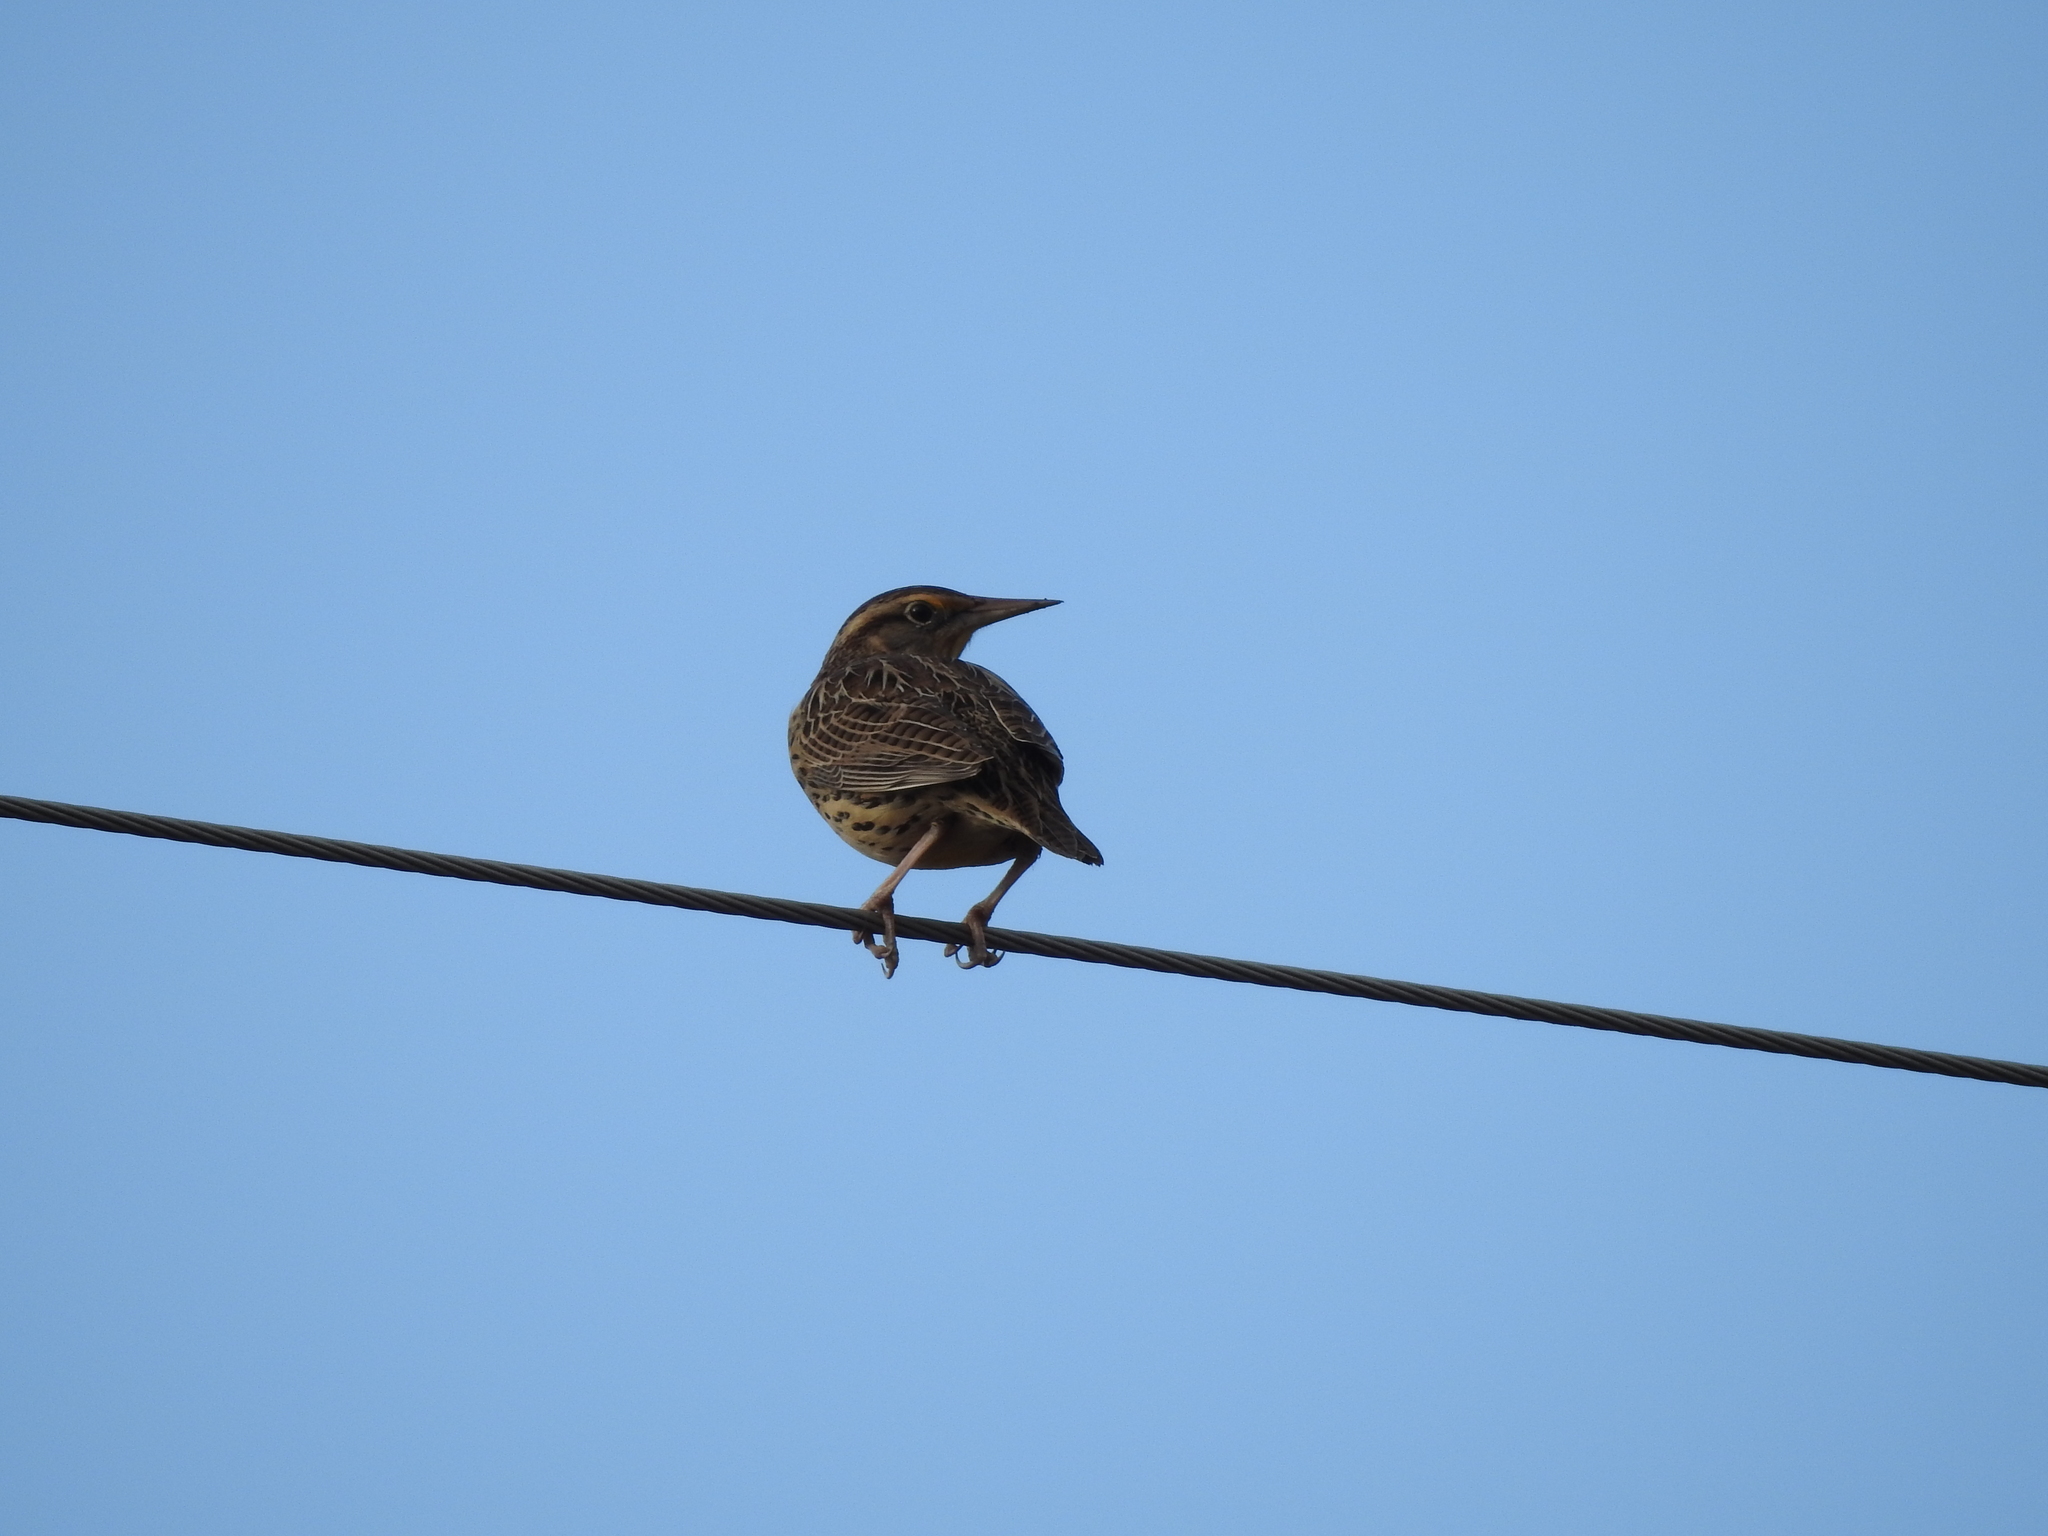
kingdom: Animalia
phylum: Chordata
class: Aves
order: Passeriformes
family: Icteridae
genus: Sturnella
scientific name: Sturnella magna
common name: Eastern meadowlark
